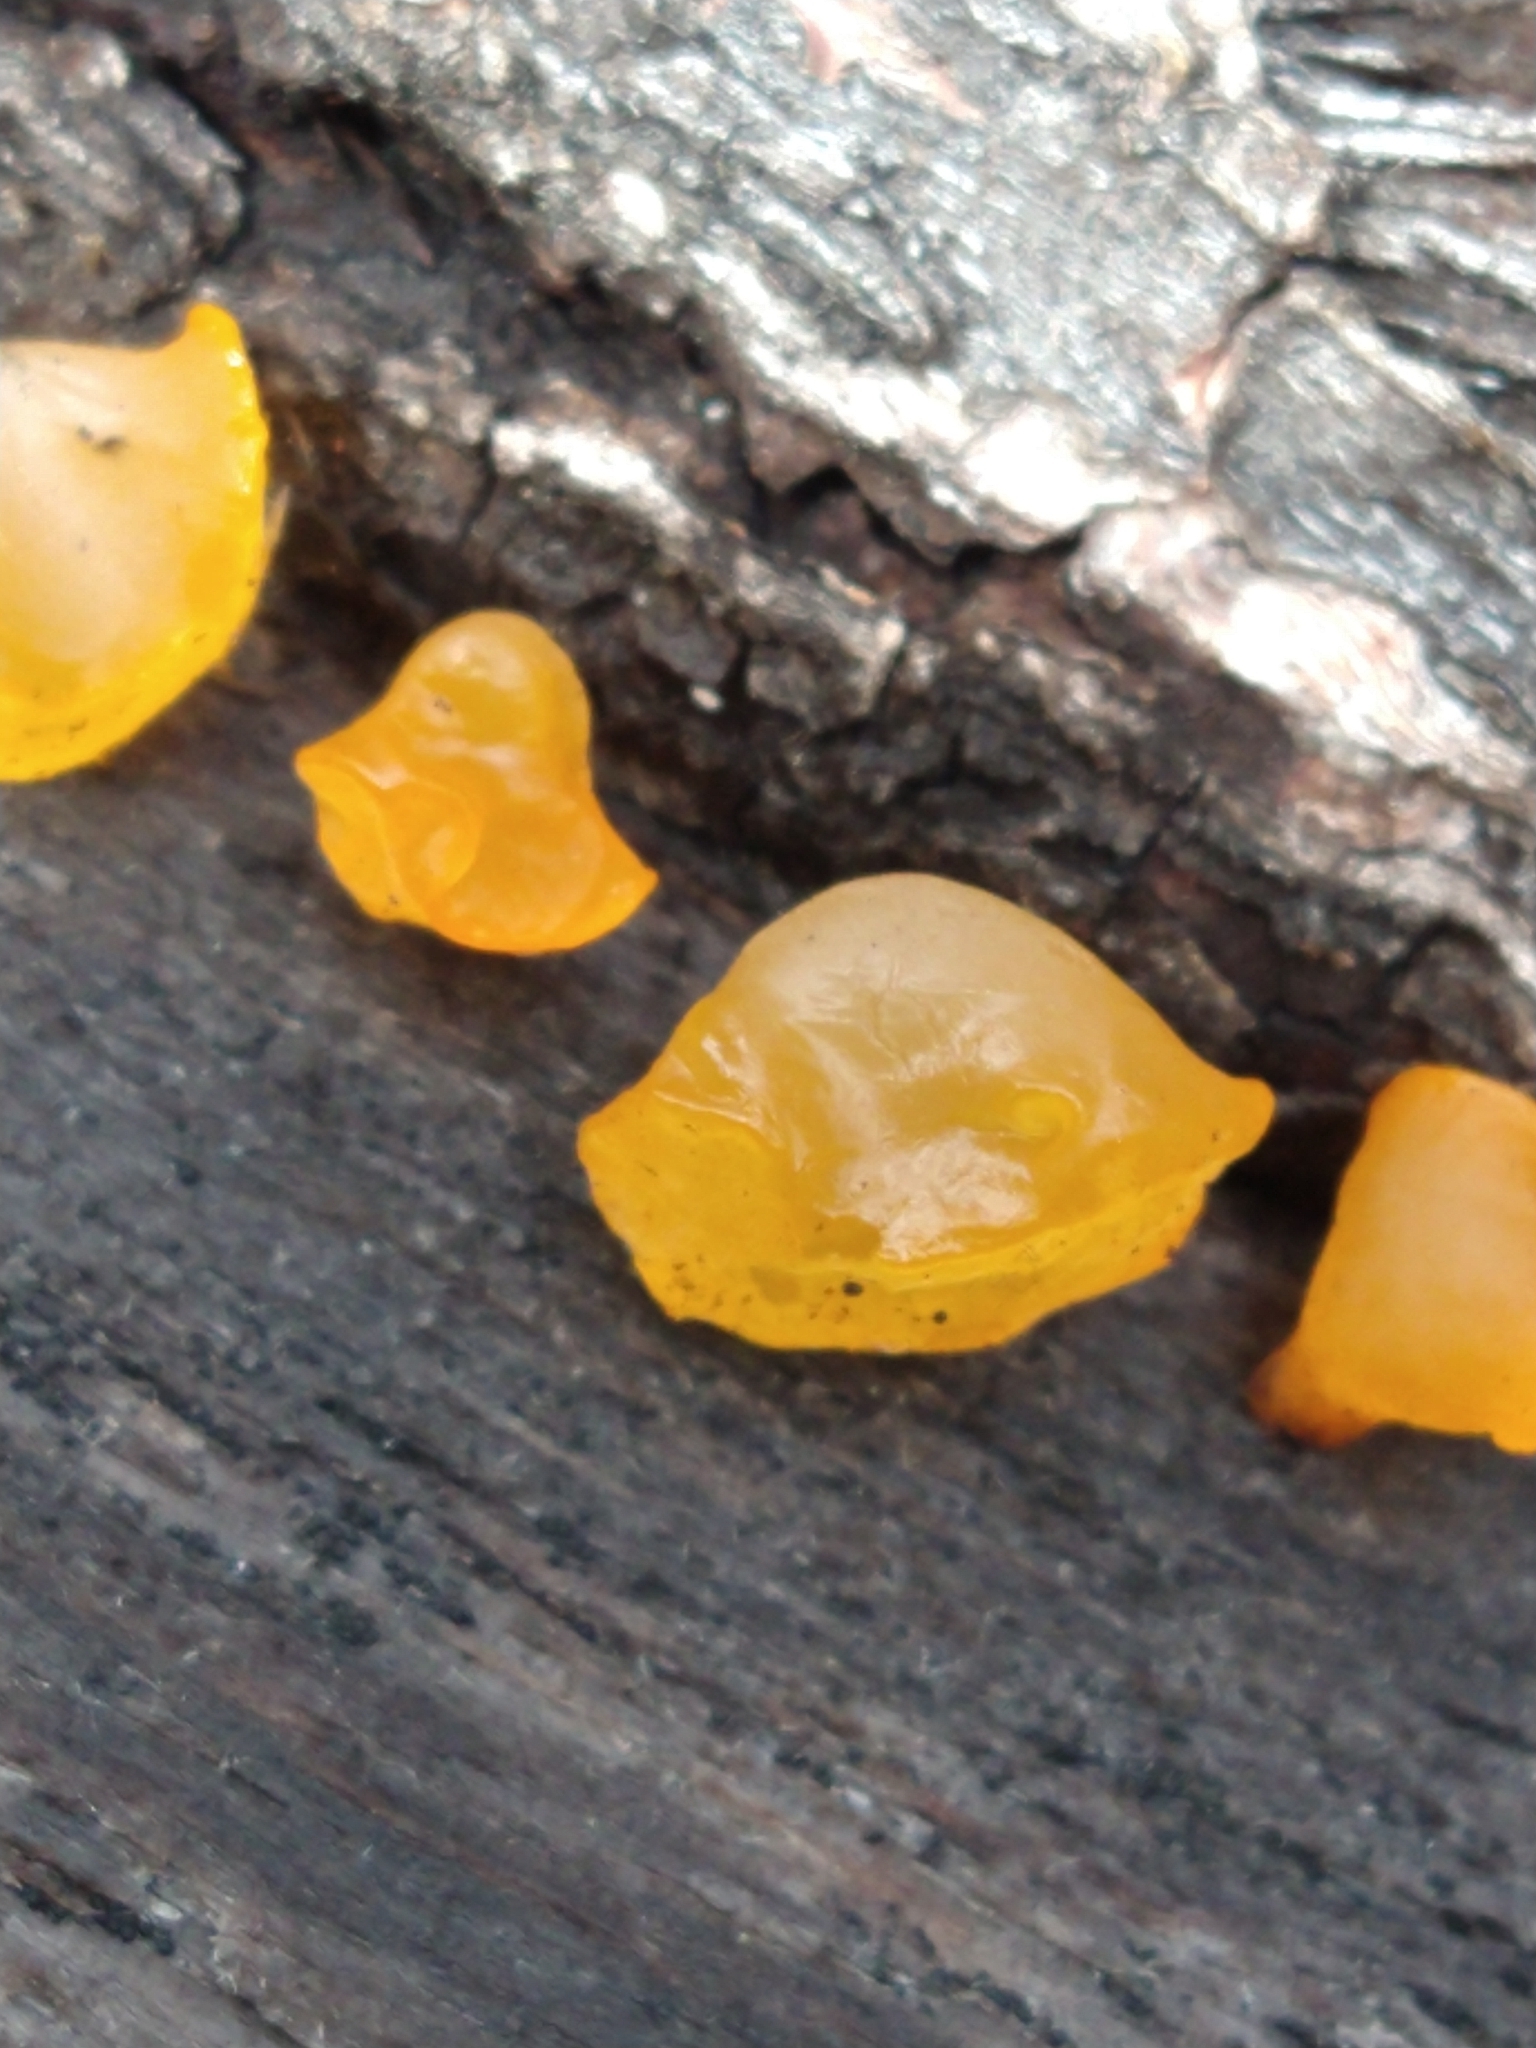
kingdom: Fungi
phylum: Basidiomycota
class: Dacrymycetes
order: Dacrymycetales
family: Dacrymycetaceae
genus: Guepiniopsis
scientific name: Guepiniopsis alpina
